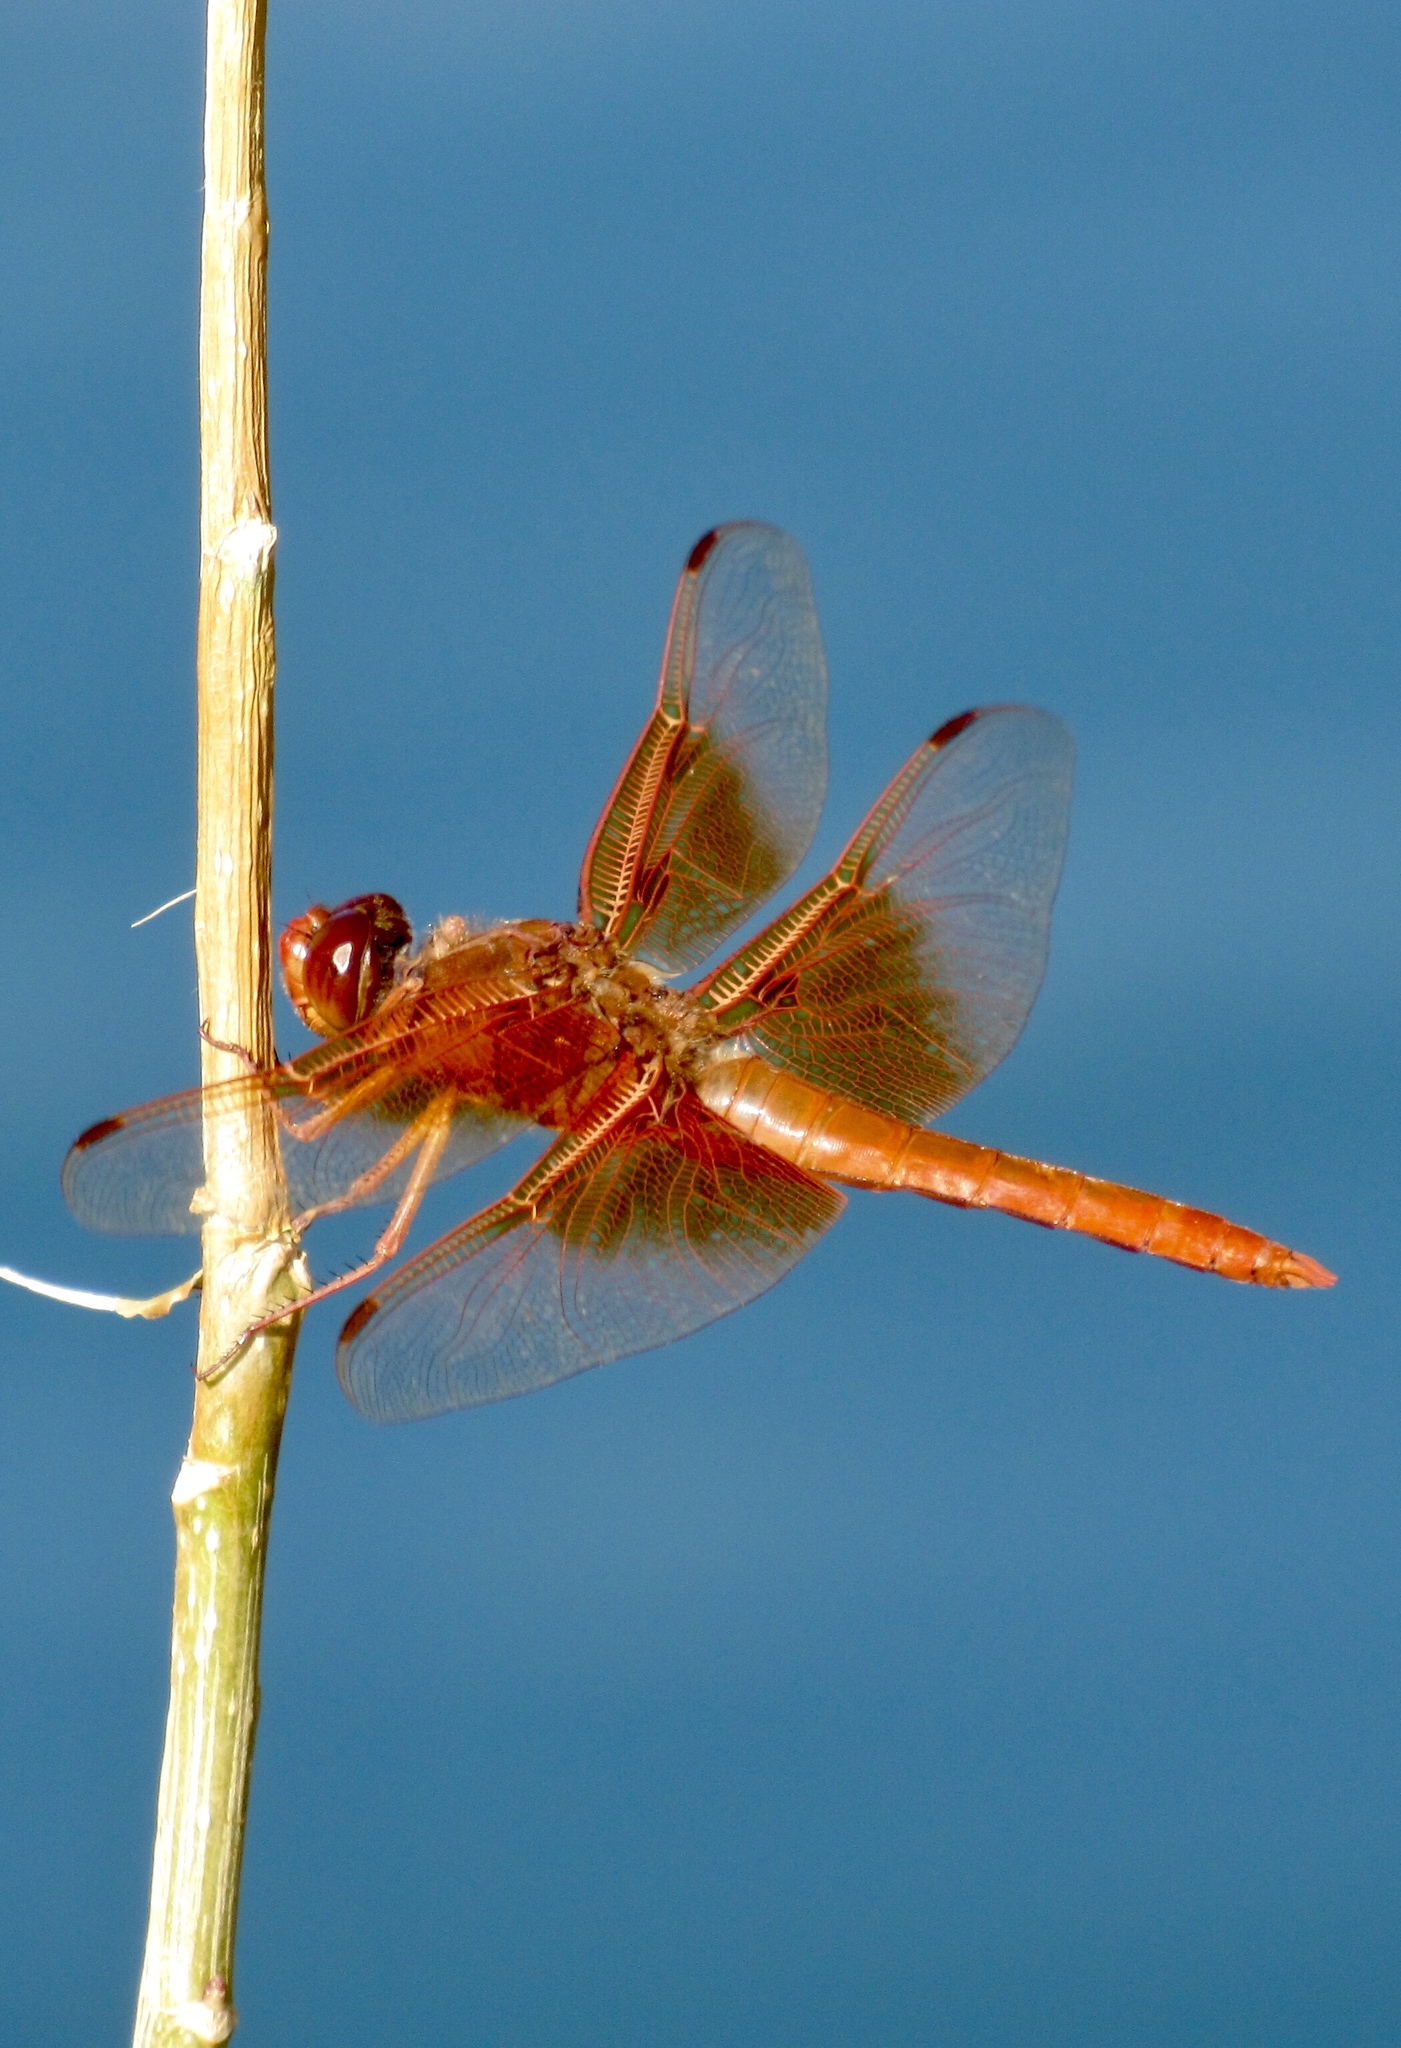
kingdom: Animalia
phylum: Arthropoda
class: Insecta
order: Odonata
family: Libellulidae
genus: Libellula
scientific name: Libellula saturata
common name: Flame skimmer
